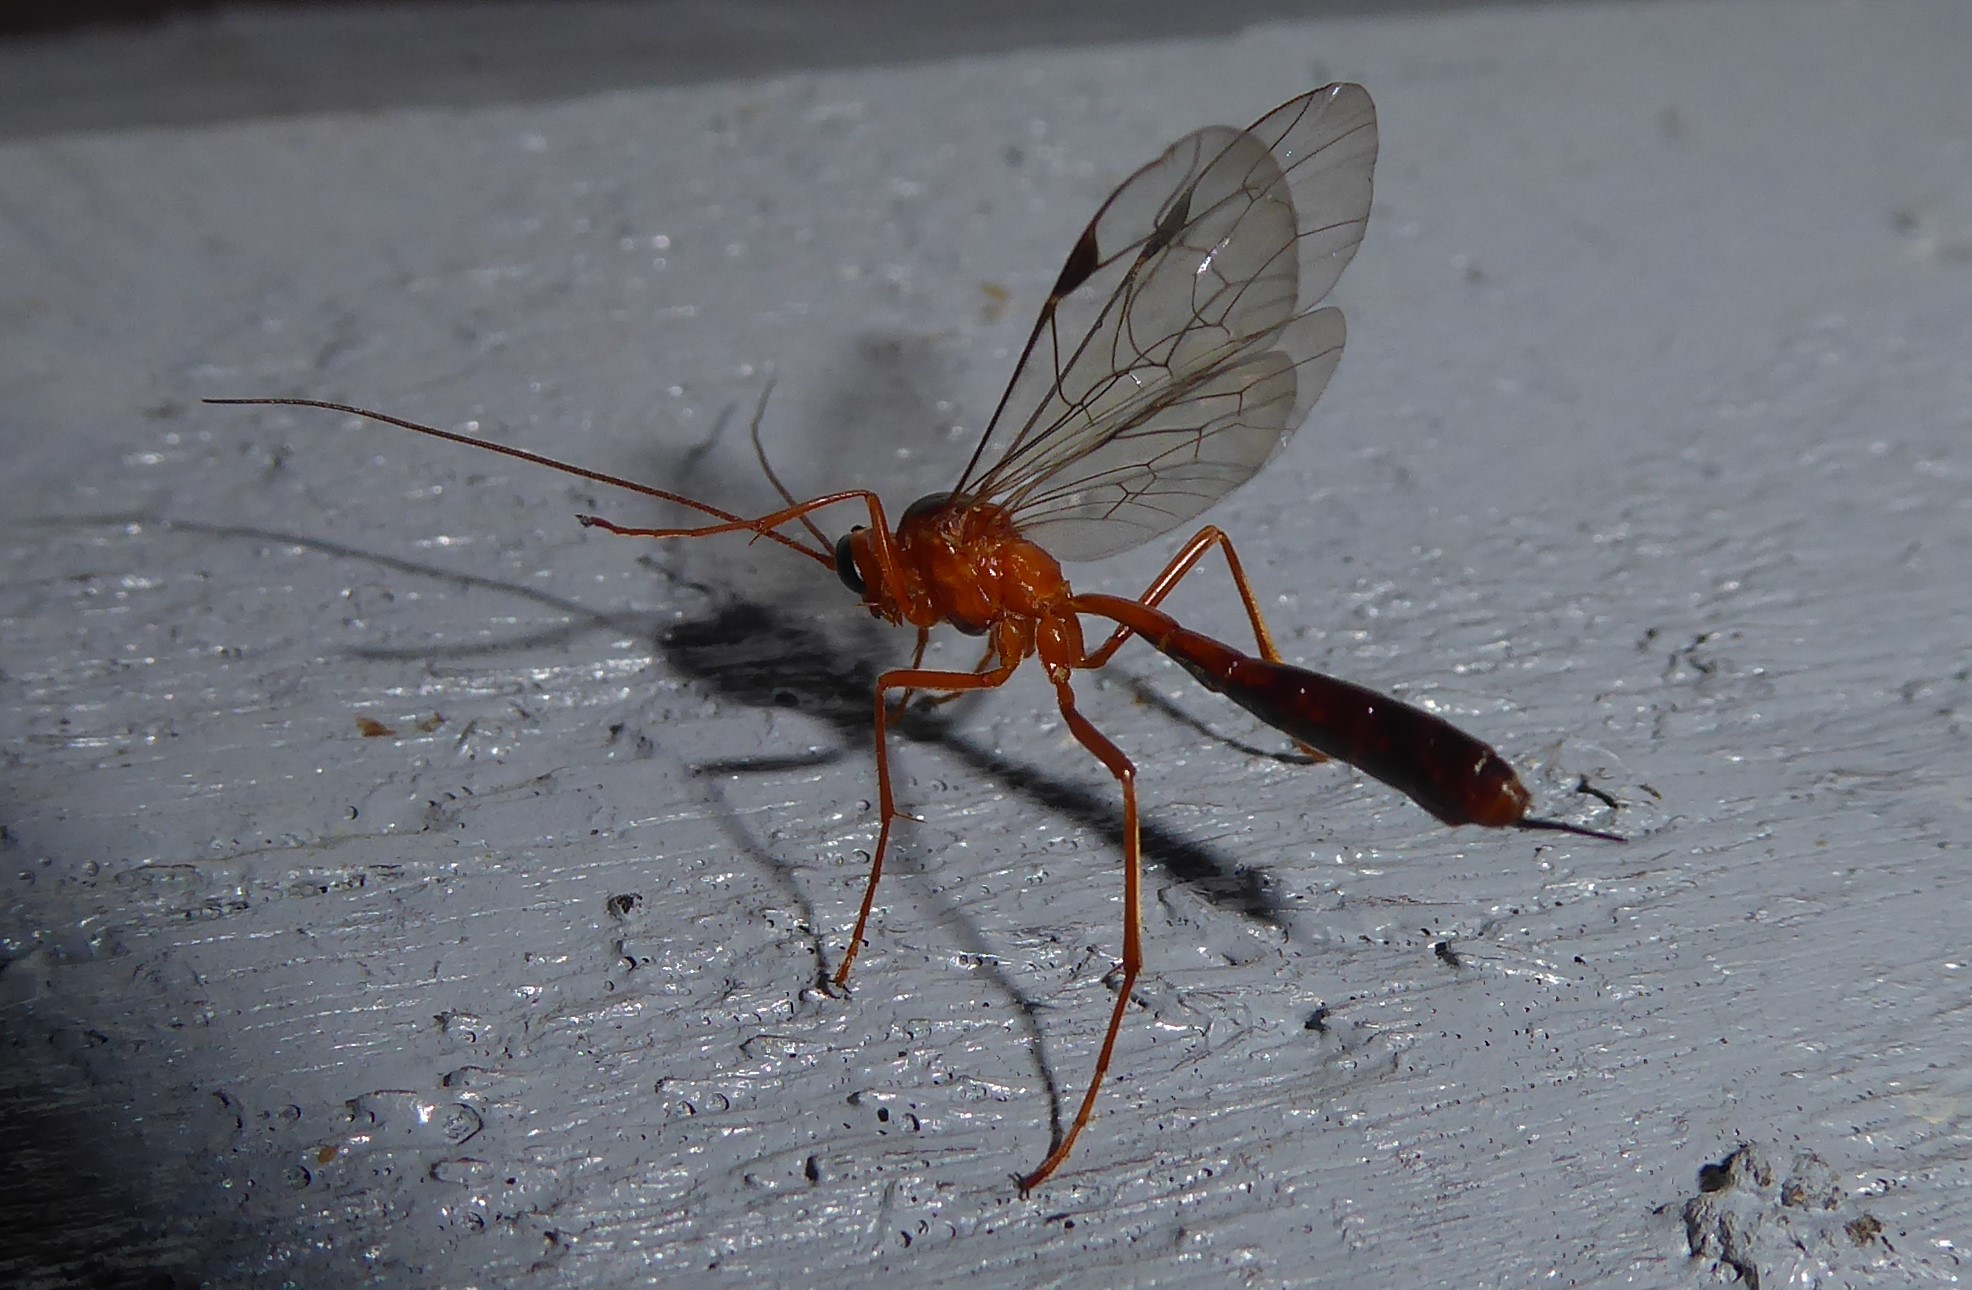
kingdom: Animalia
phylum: Arthropoda
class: Insecta
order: Hymenoptera
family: Ichneumonidae
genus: Netelia
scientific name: Netelia ephippiata
